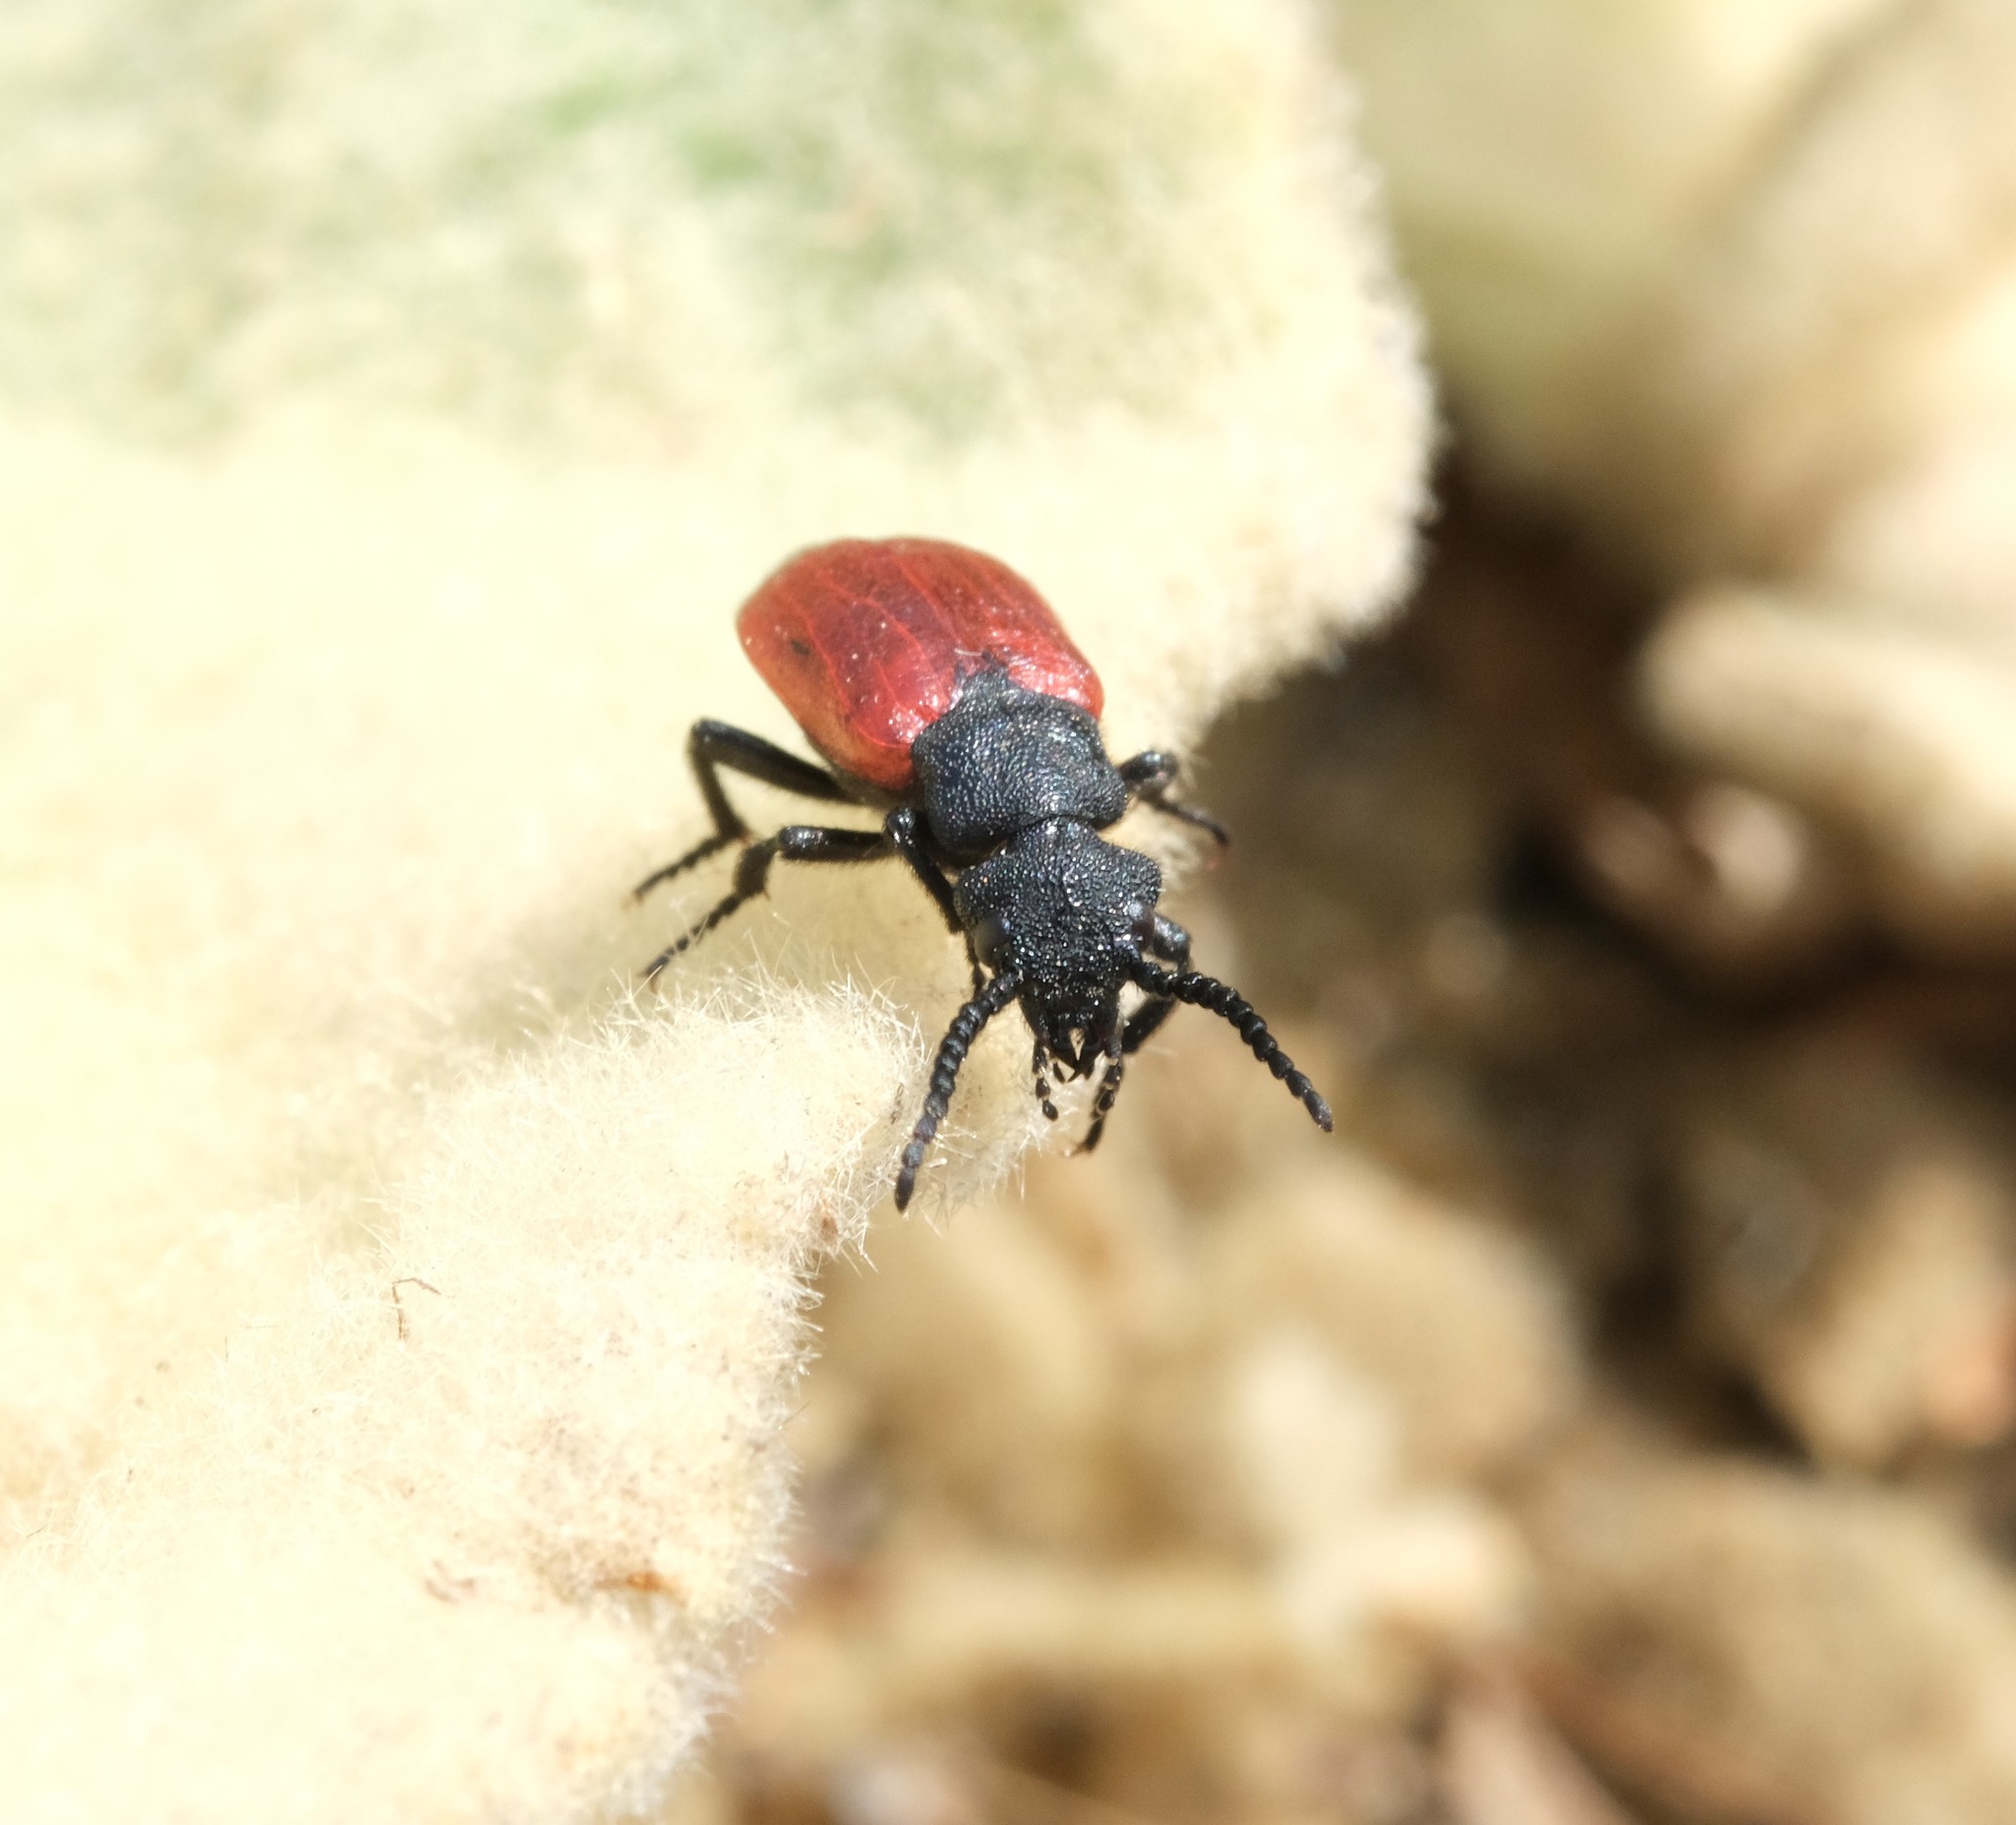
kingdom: Animalia
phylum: Arthropoda
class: Insecta
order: Coleoptera
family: Meloidae
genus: Tricrania
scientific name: Tricrania sanguinipennis
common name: Blood-winged blister beetle
